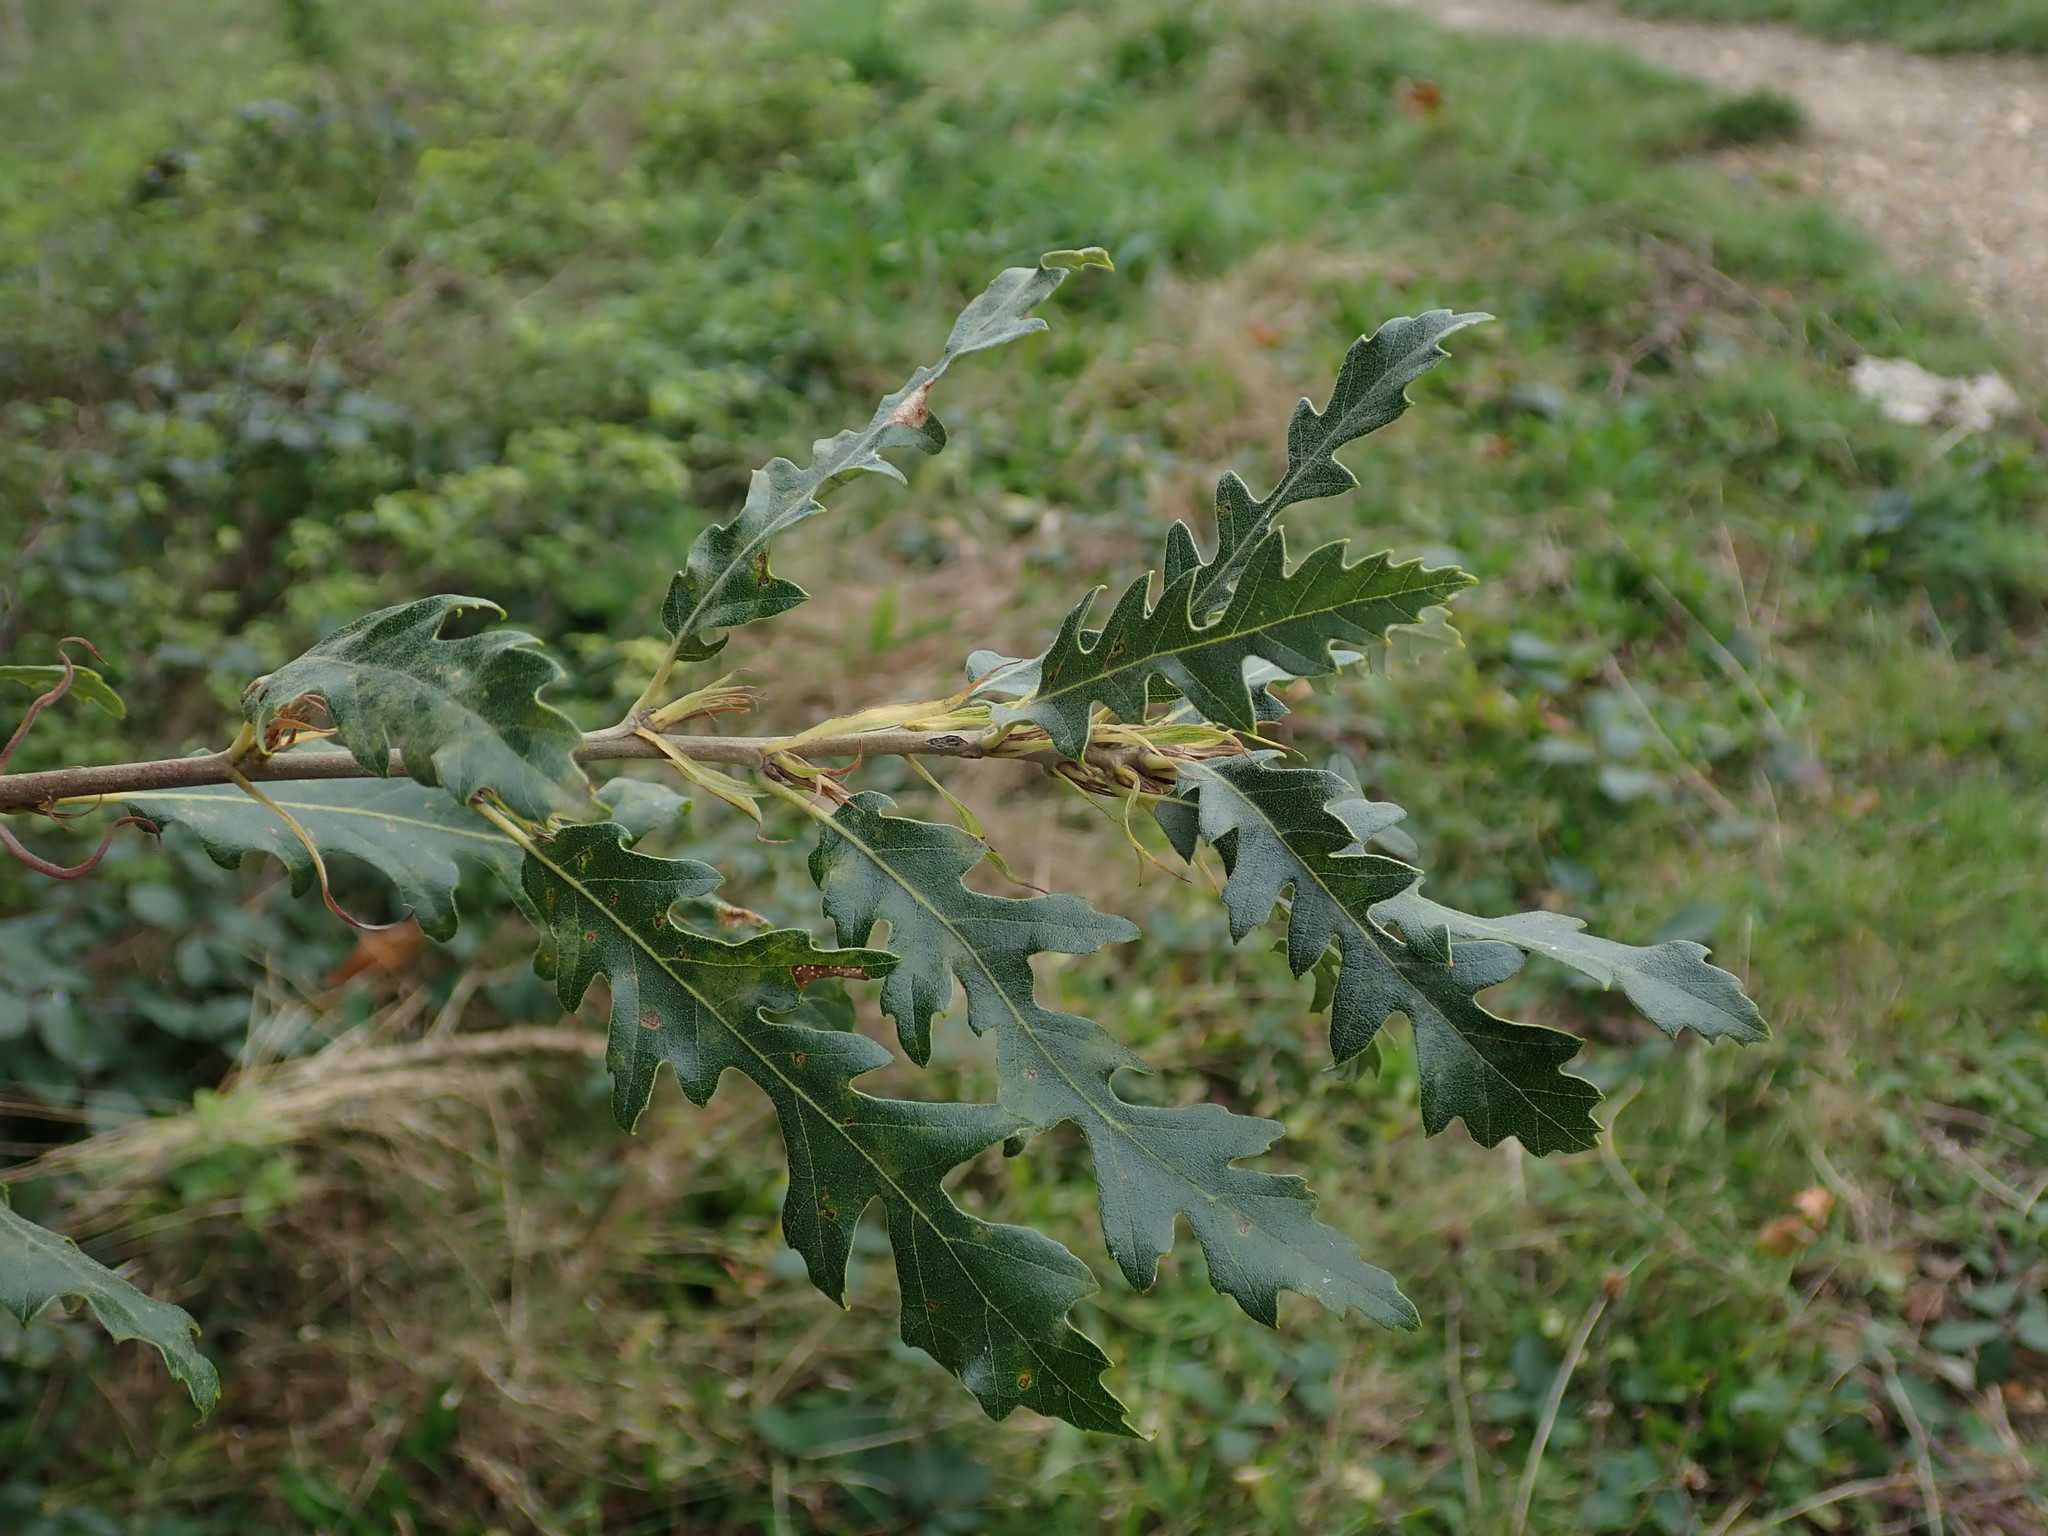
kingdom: Plantae
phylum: Tracheophyta
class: Magnoliopsida
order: Fagales
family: Fagaceae
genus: Quercus
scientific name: Quercus cerris
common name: Turkey oak
